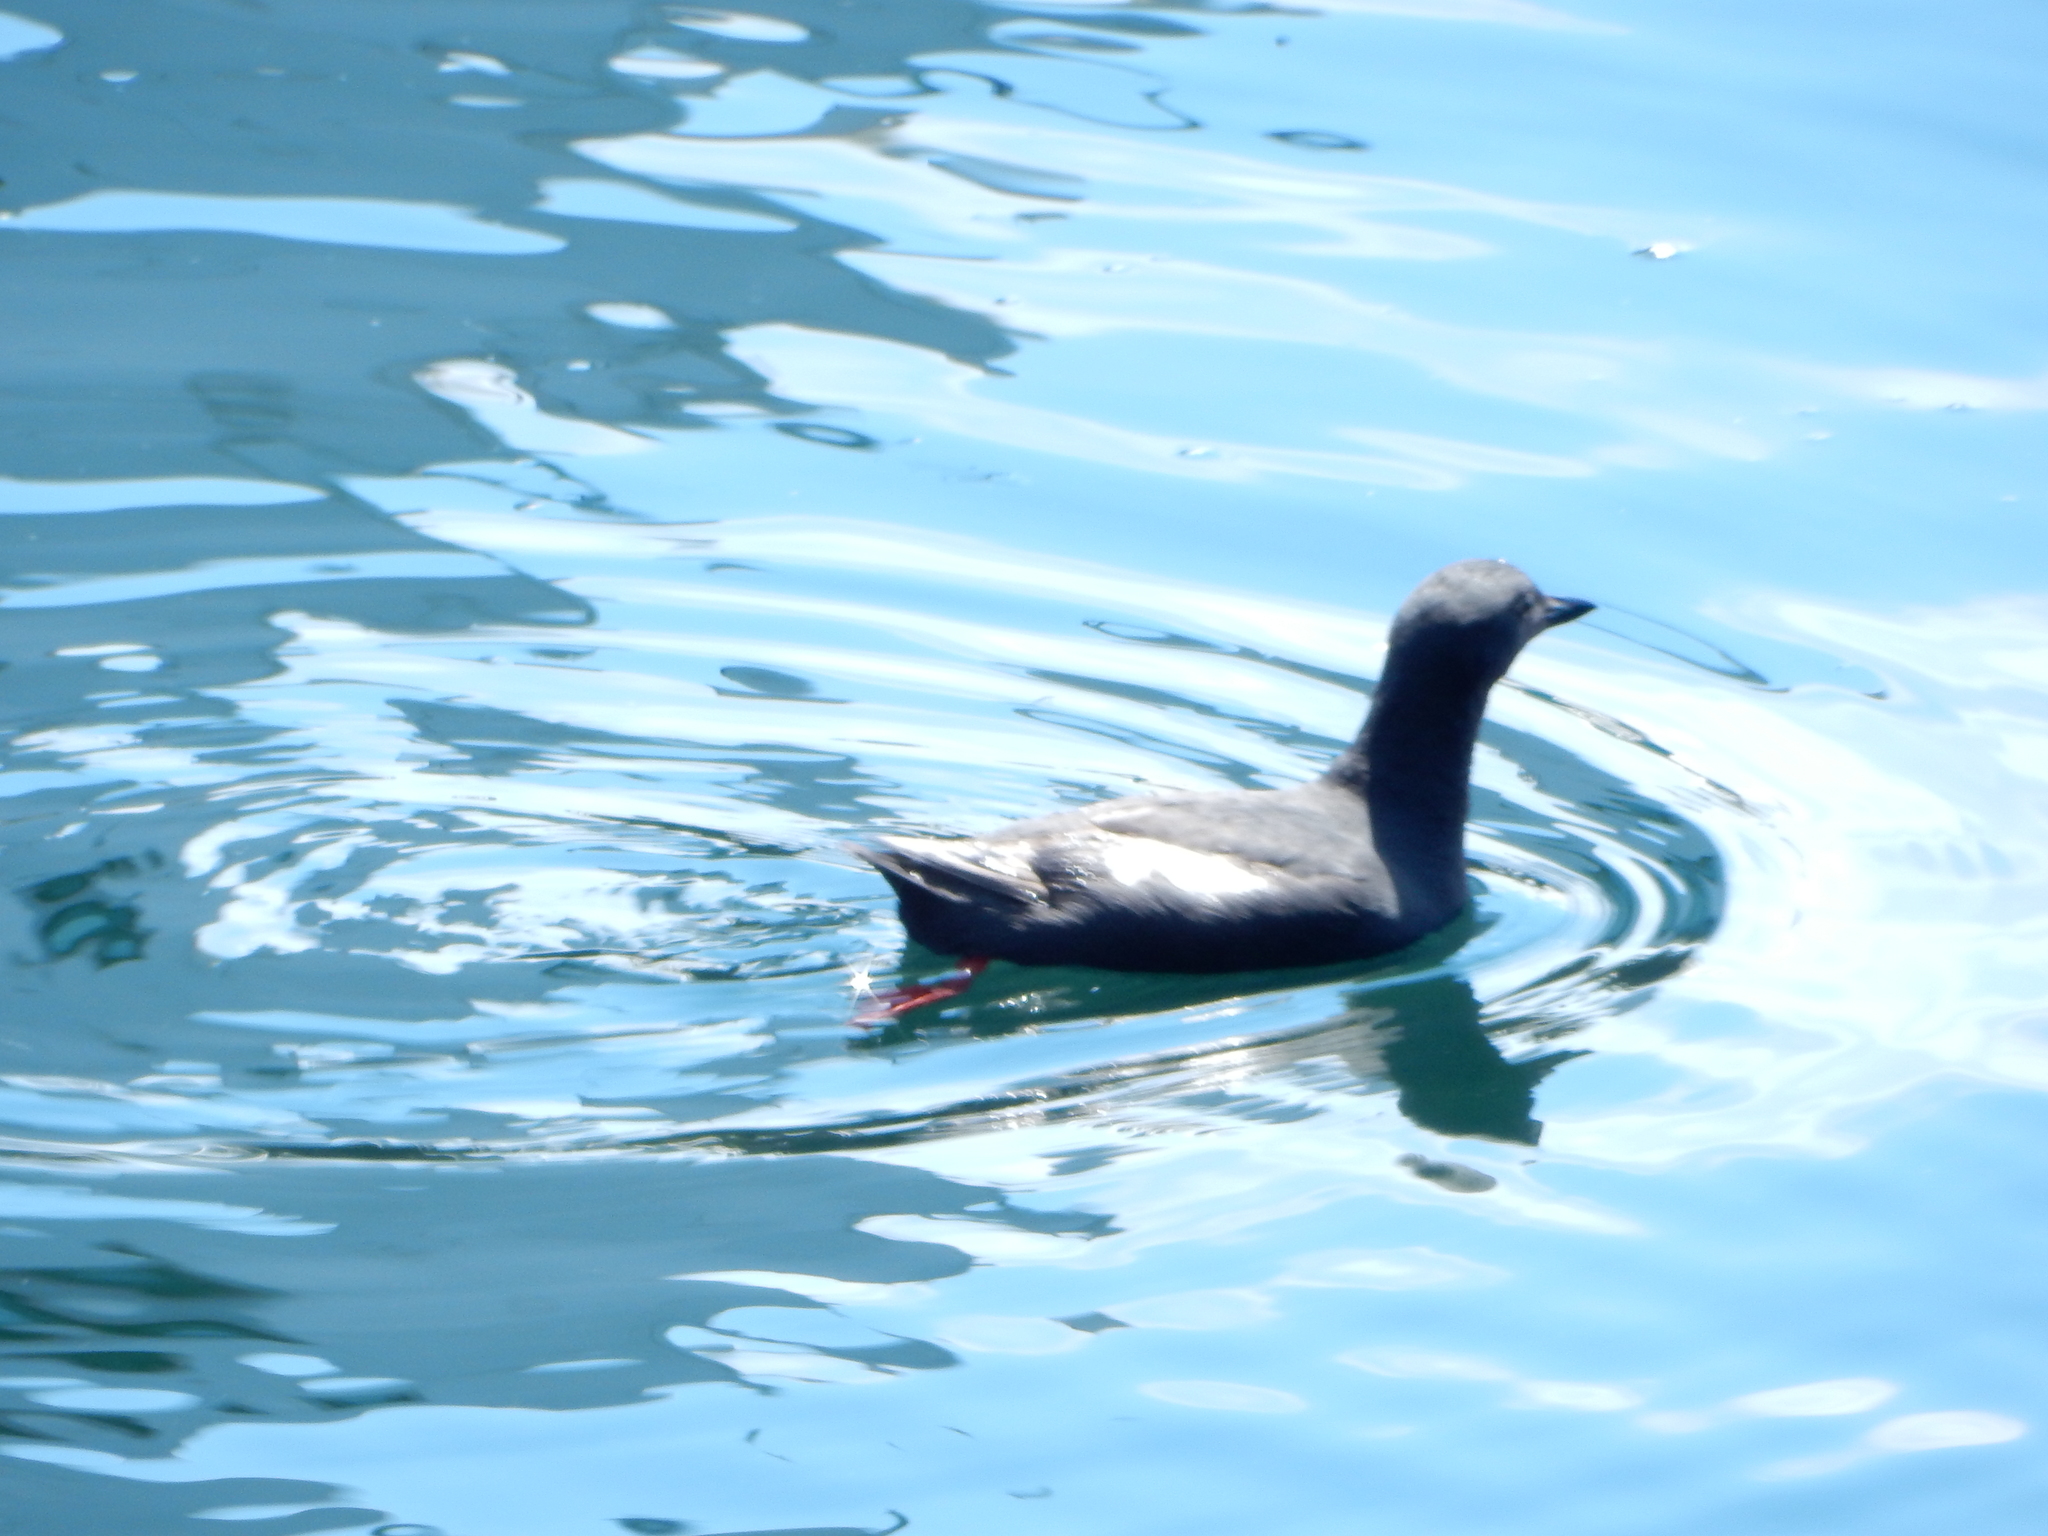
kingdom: Animalia
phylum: Chordata
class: Aves
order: Charadriiformes
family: Alcidae
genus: Cepphus
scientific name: Cepphus columba
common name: Pigeon guillemot
